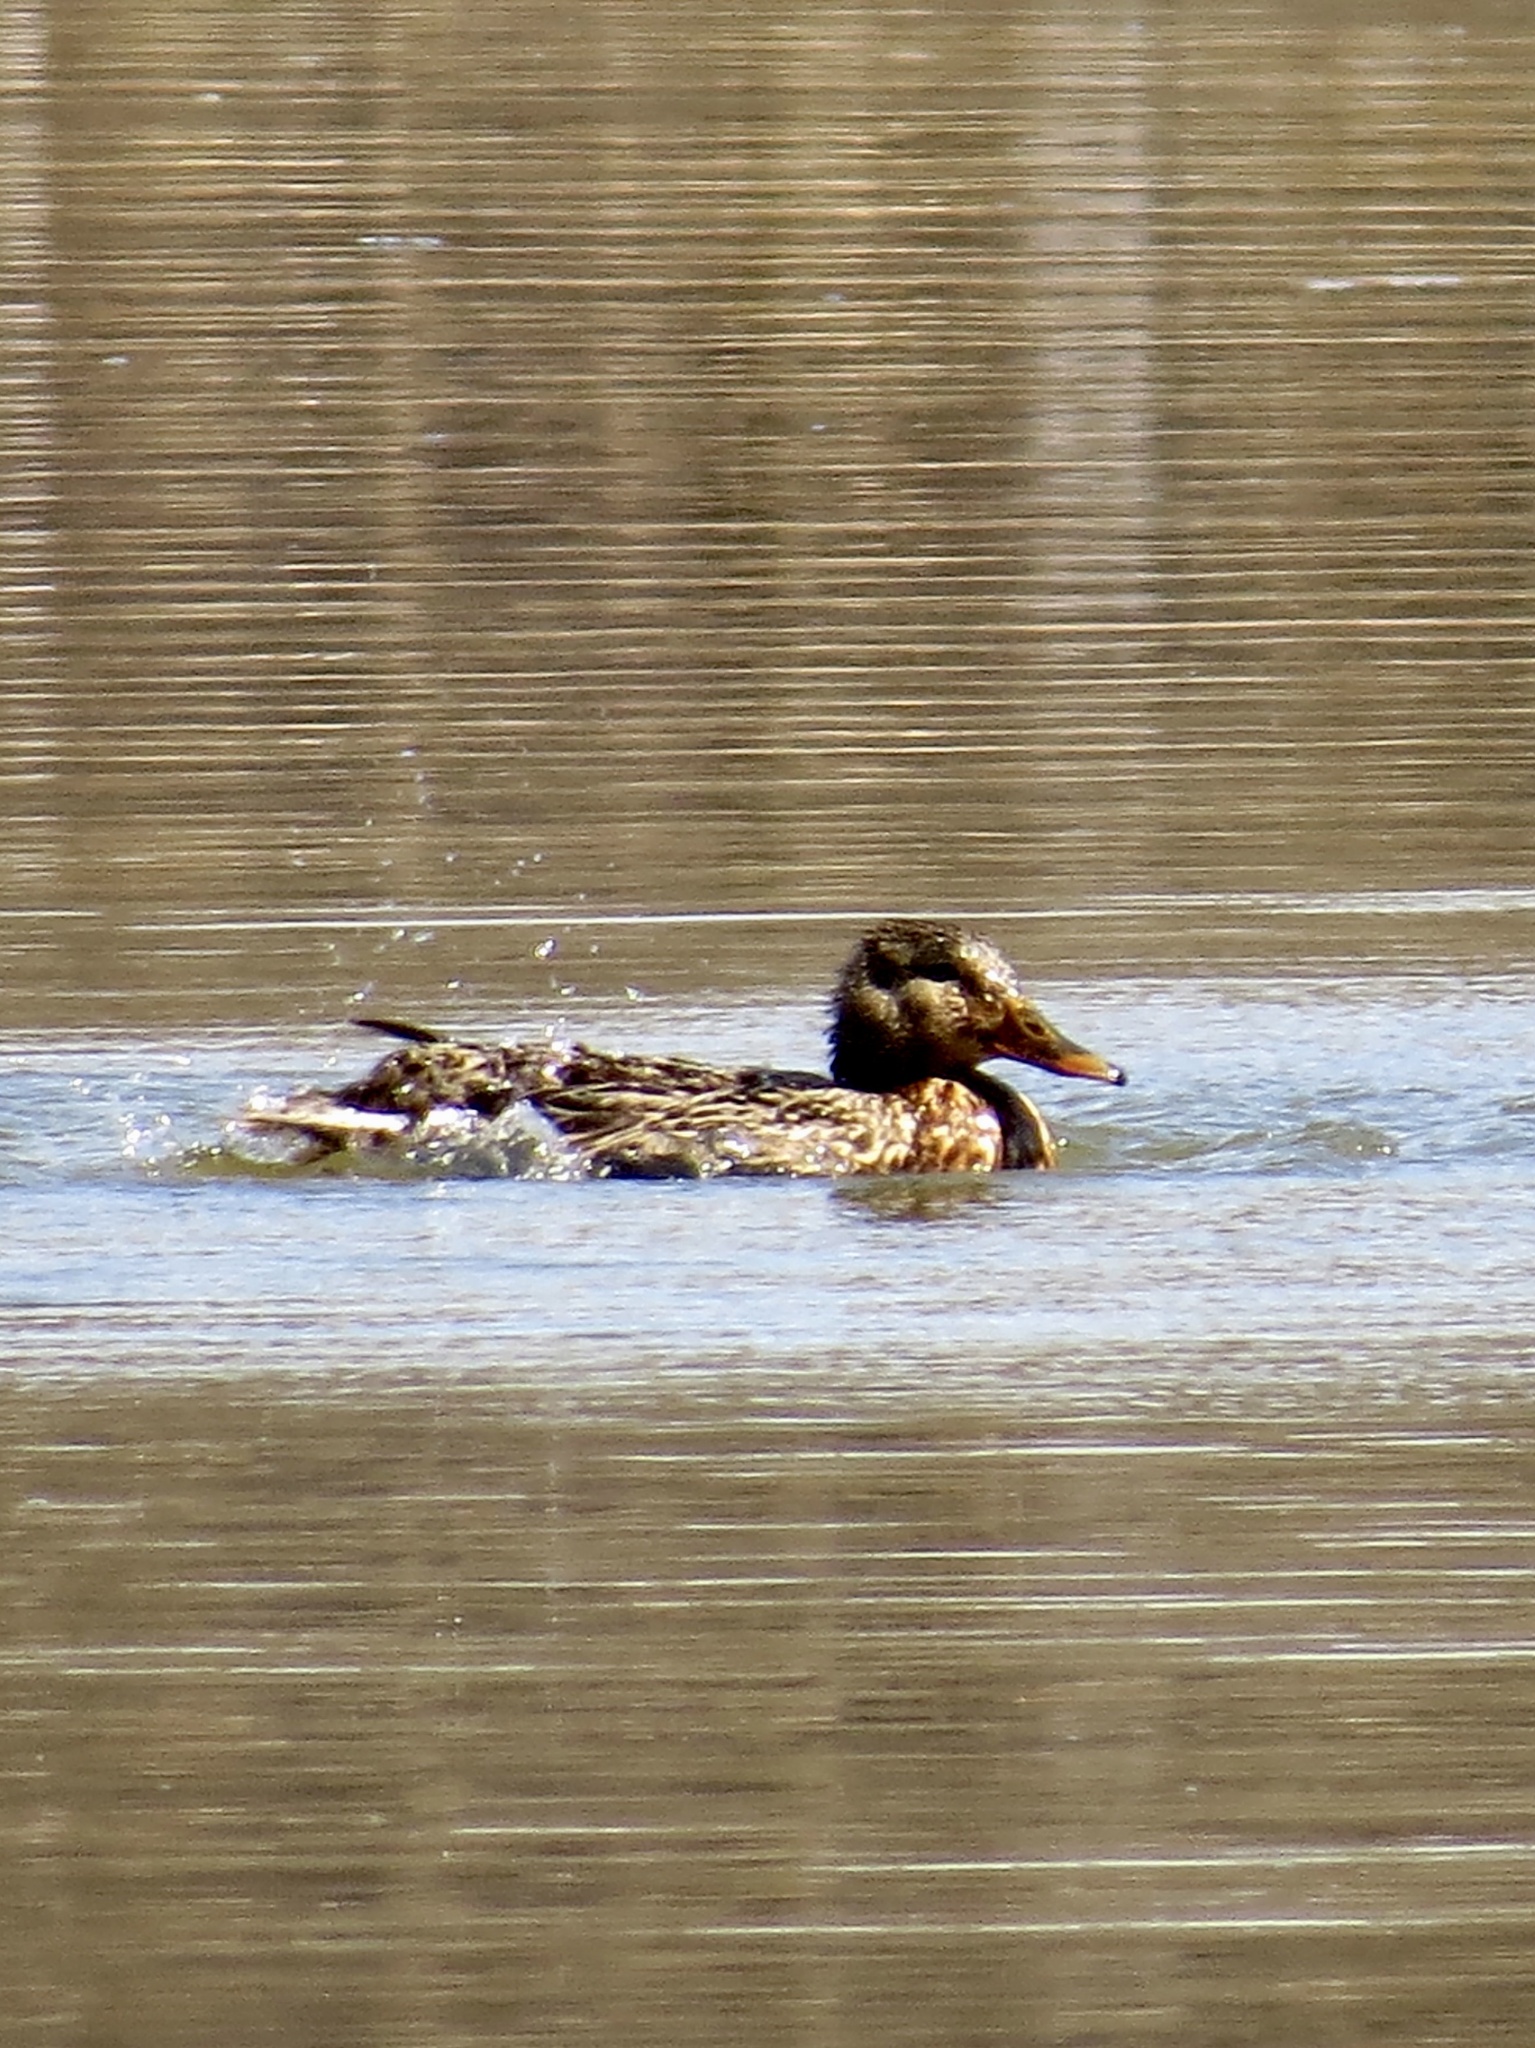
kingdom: Animalia
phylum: Chordata
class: Aves
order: Anseriformes
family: Anatidae
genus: Anas
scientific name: Anas platyrhynchos
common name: Mallard
